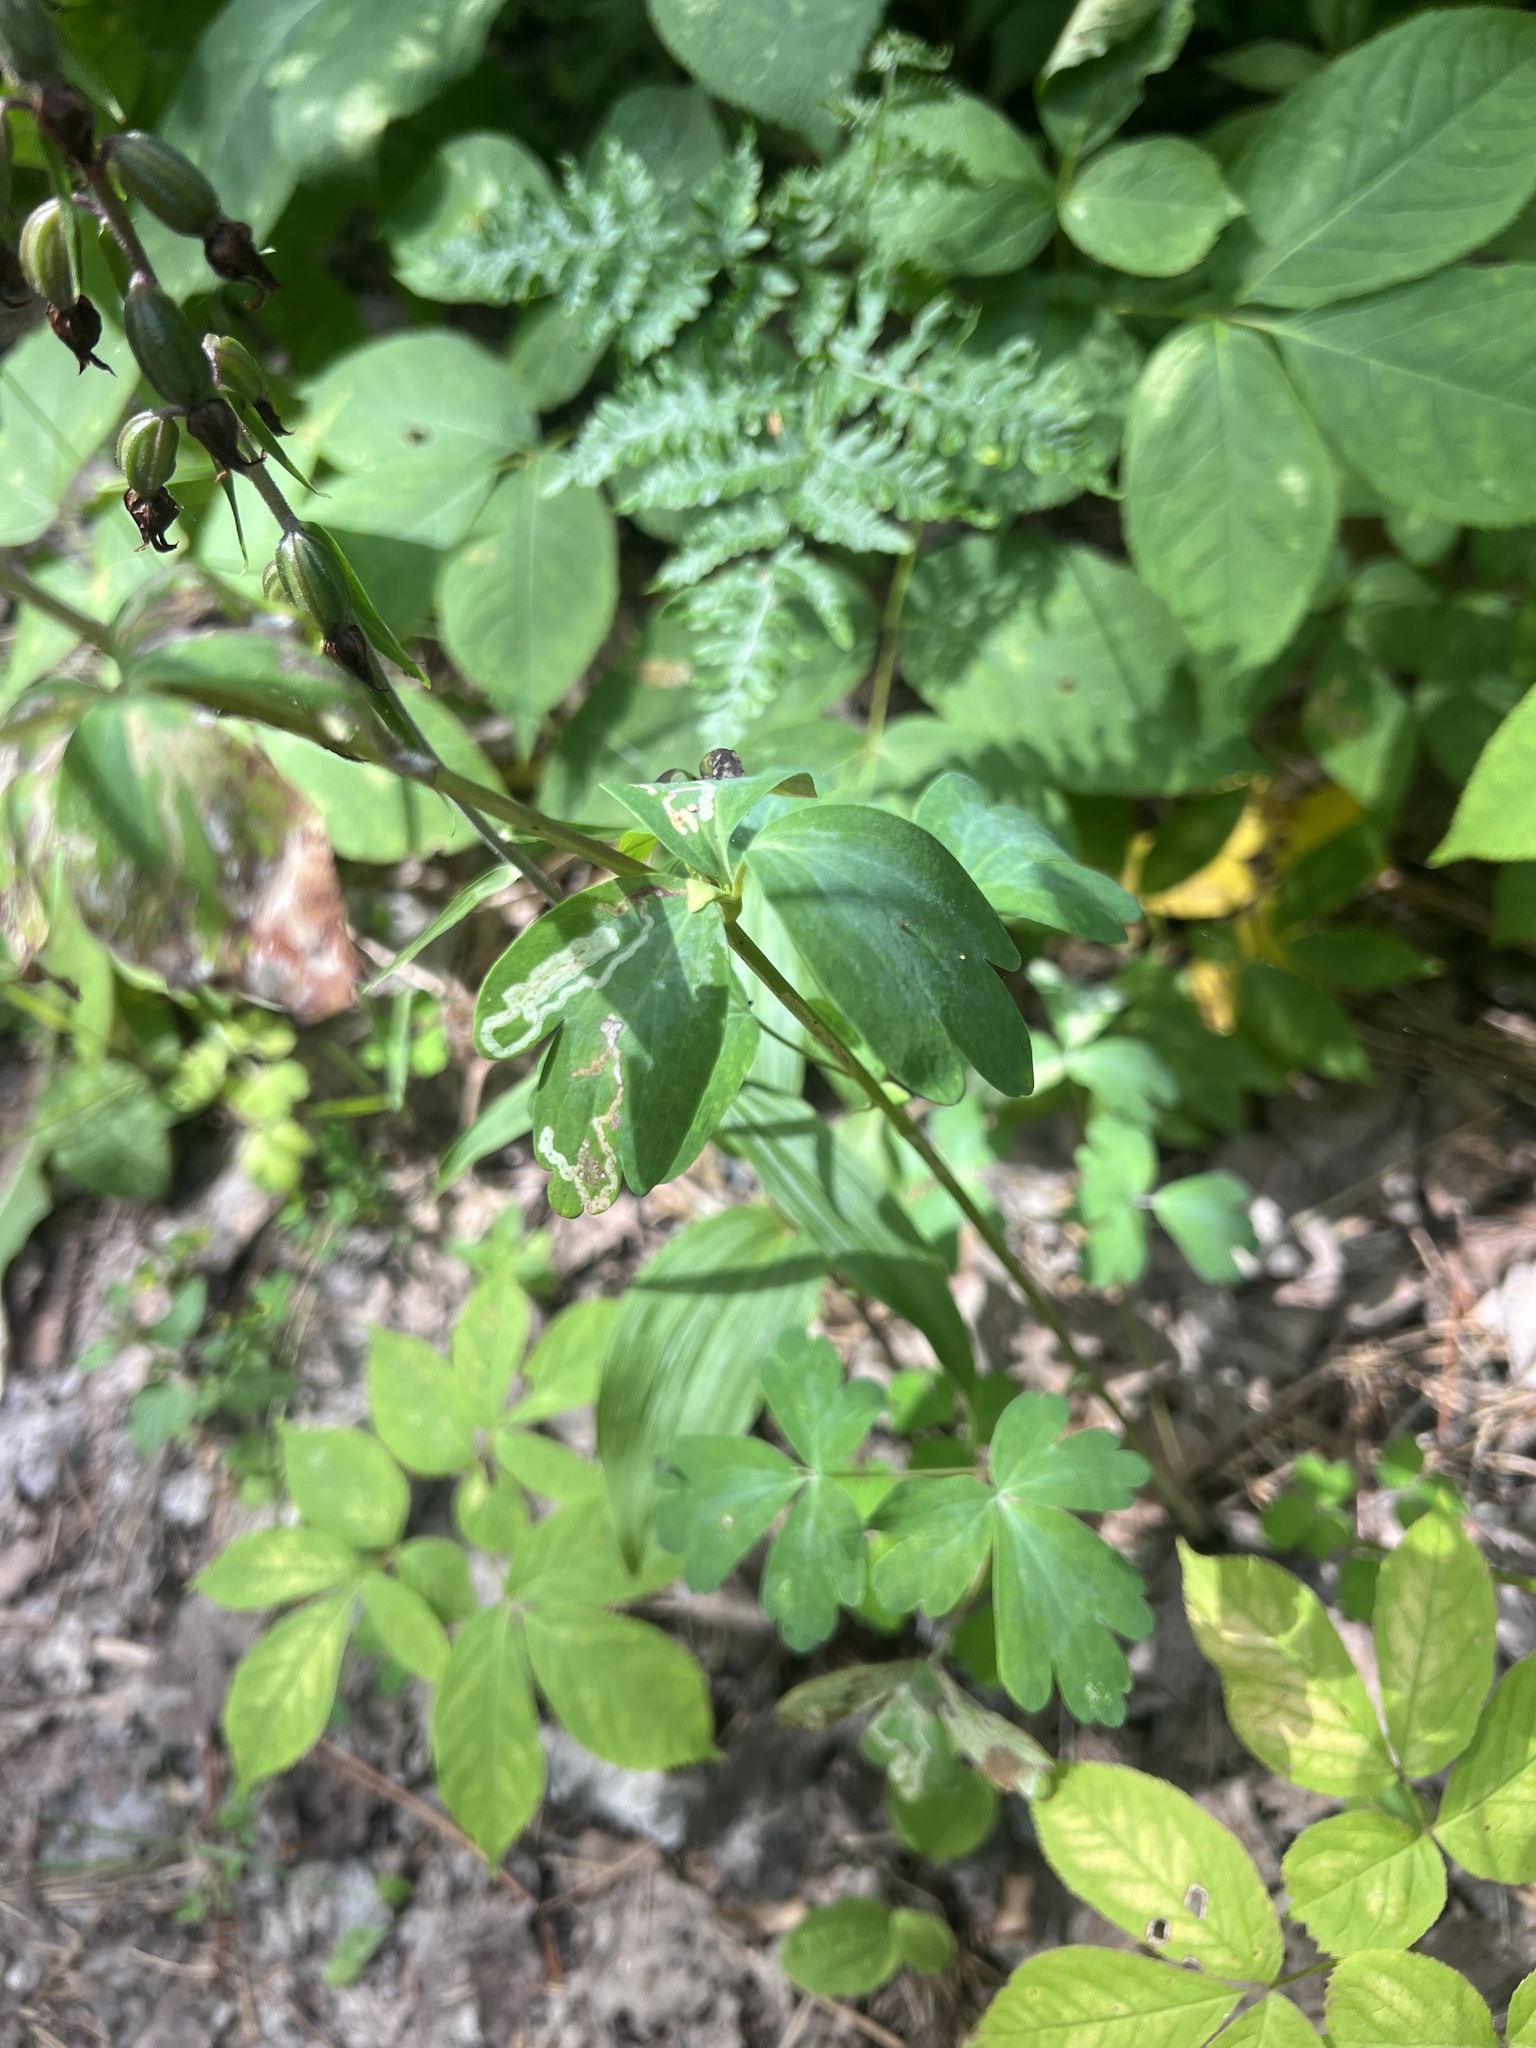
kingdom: Plantae
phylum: Tracheophyta
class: Magnoliopsida
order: Ranunculales
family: Ranunculaceae
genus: Aquilegia
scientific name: Aquilegia canadensis
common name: American columbine
